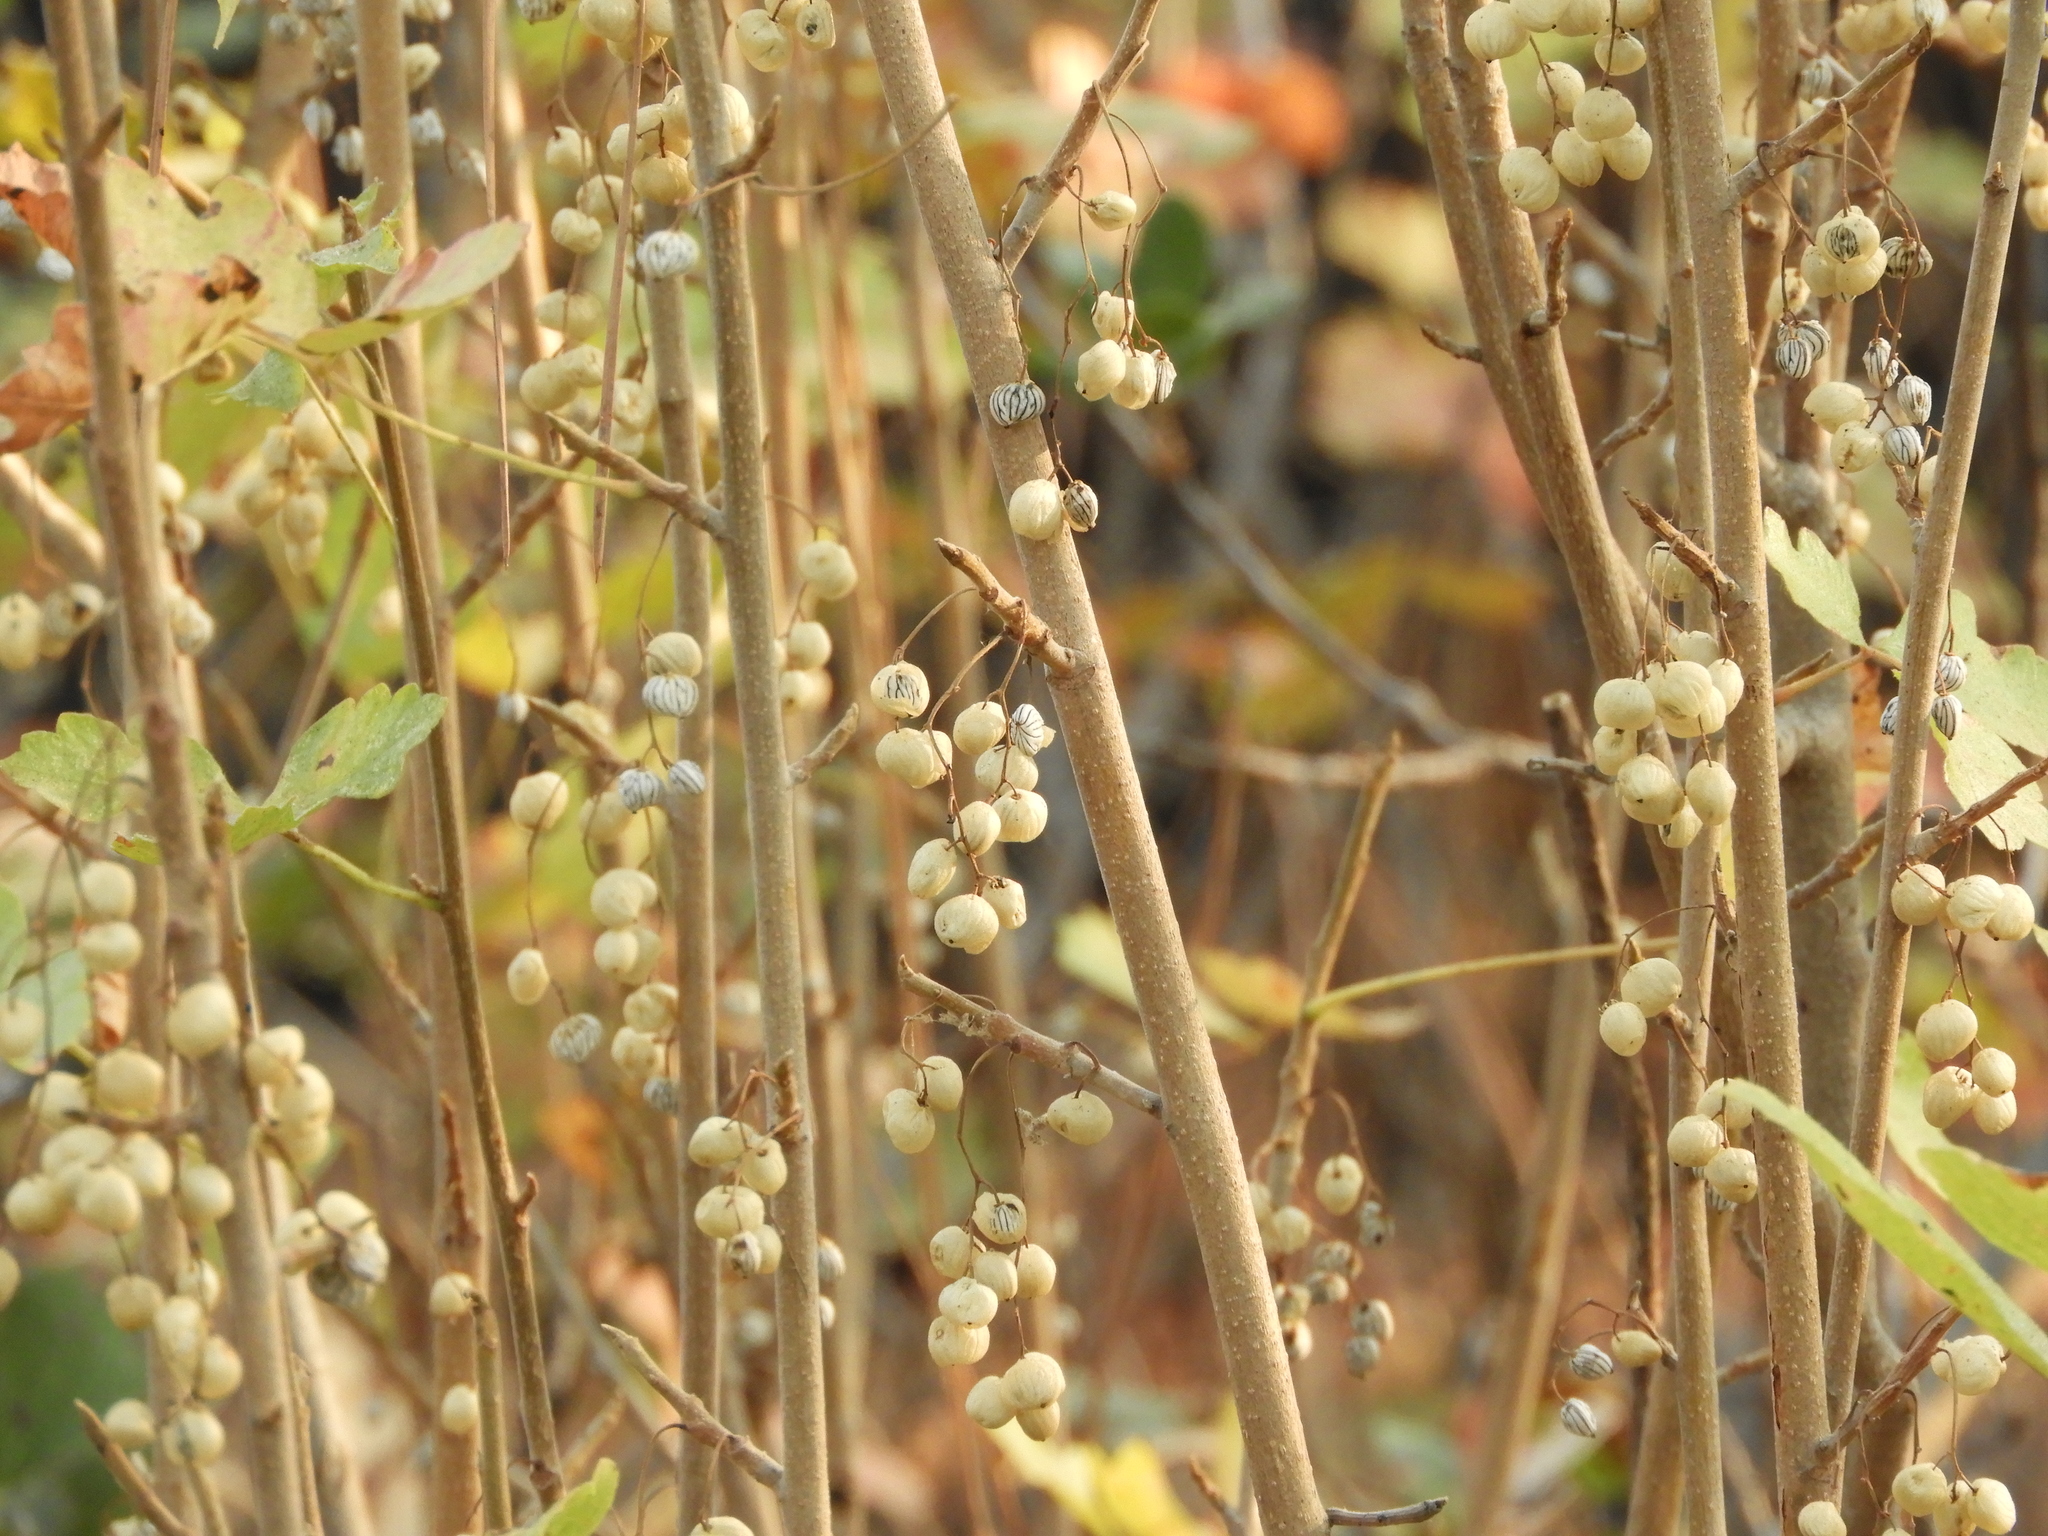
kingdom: Plantae
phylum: Tracheophyta
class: Magnoliopsida
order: Sapindales
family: Anacardiaceae
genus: Toxicodendron
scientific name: Toxicodendron diversilobum
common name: Pacific poison-oak
